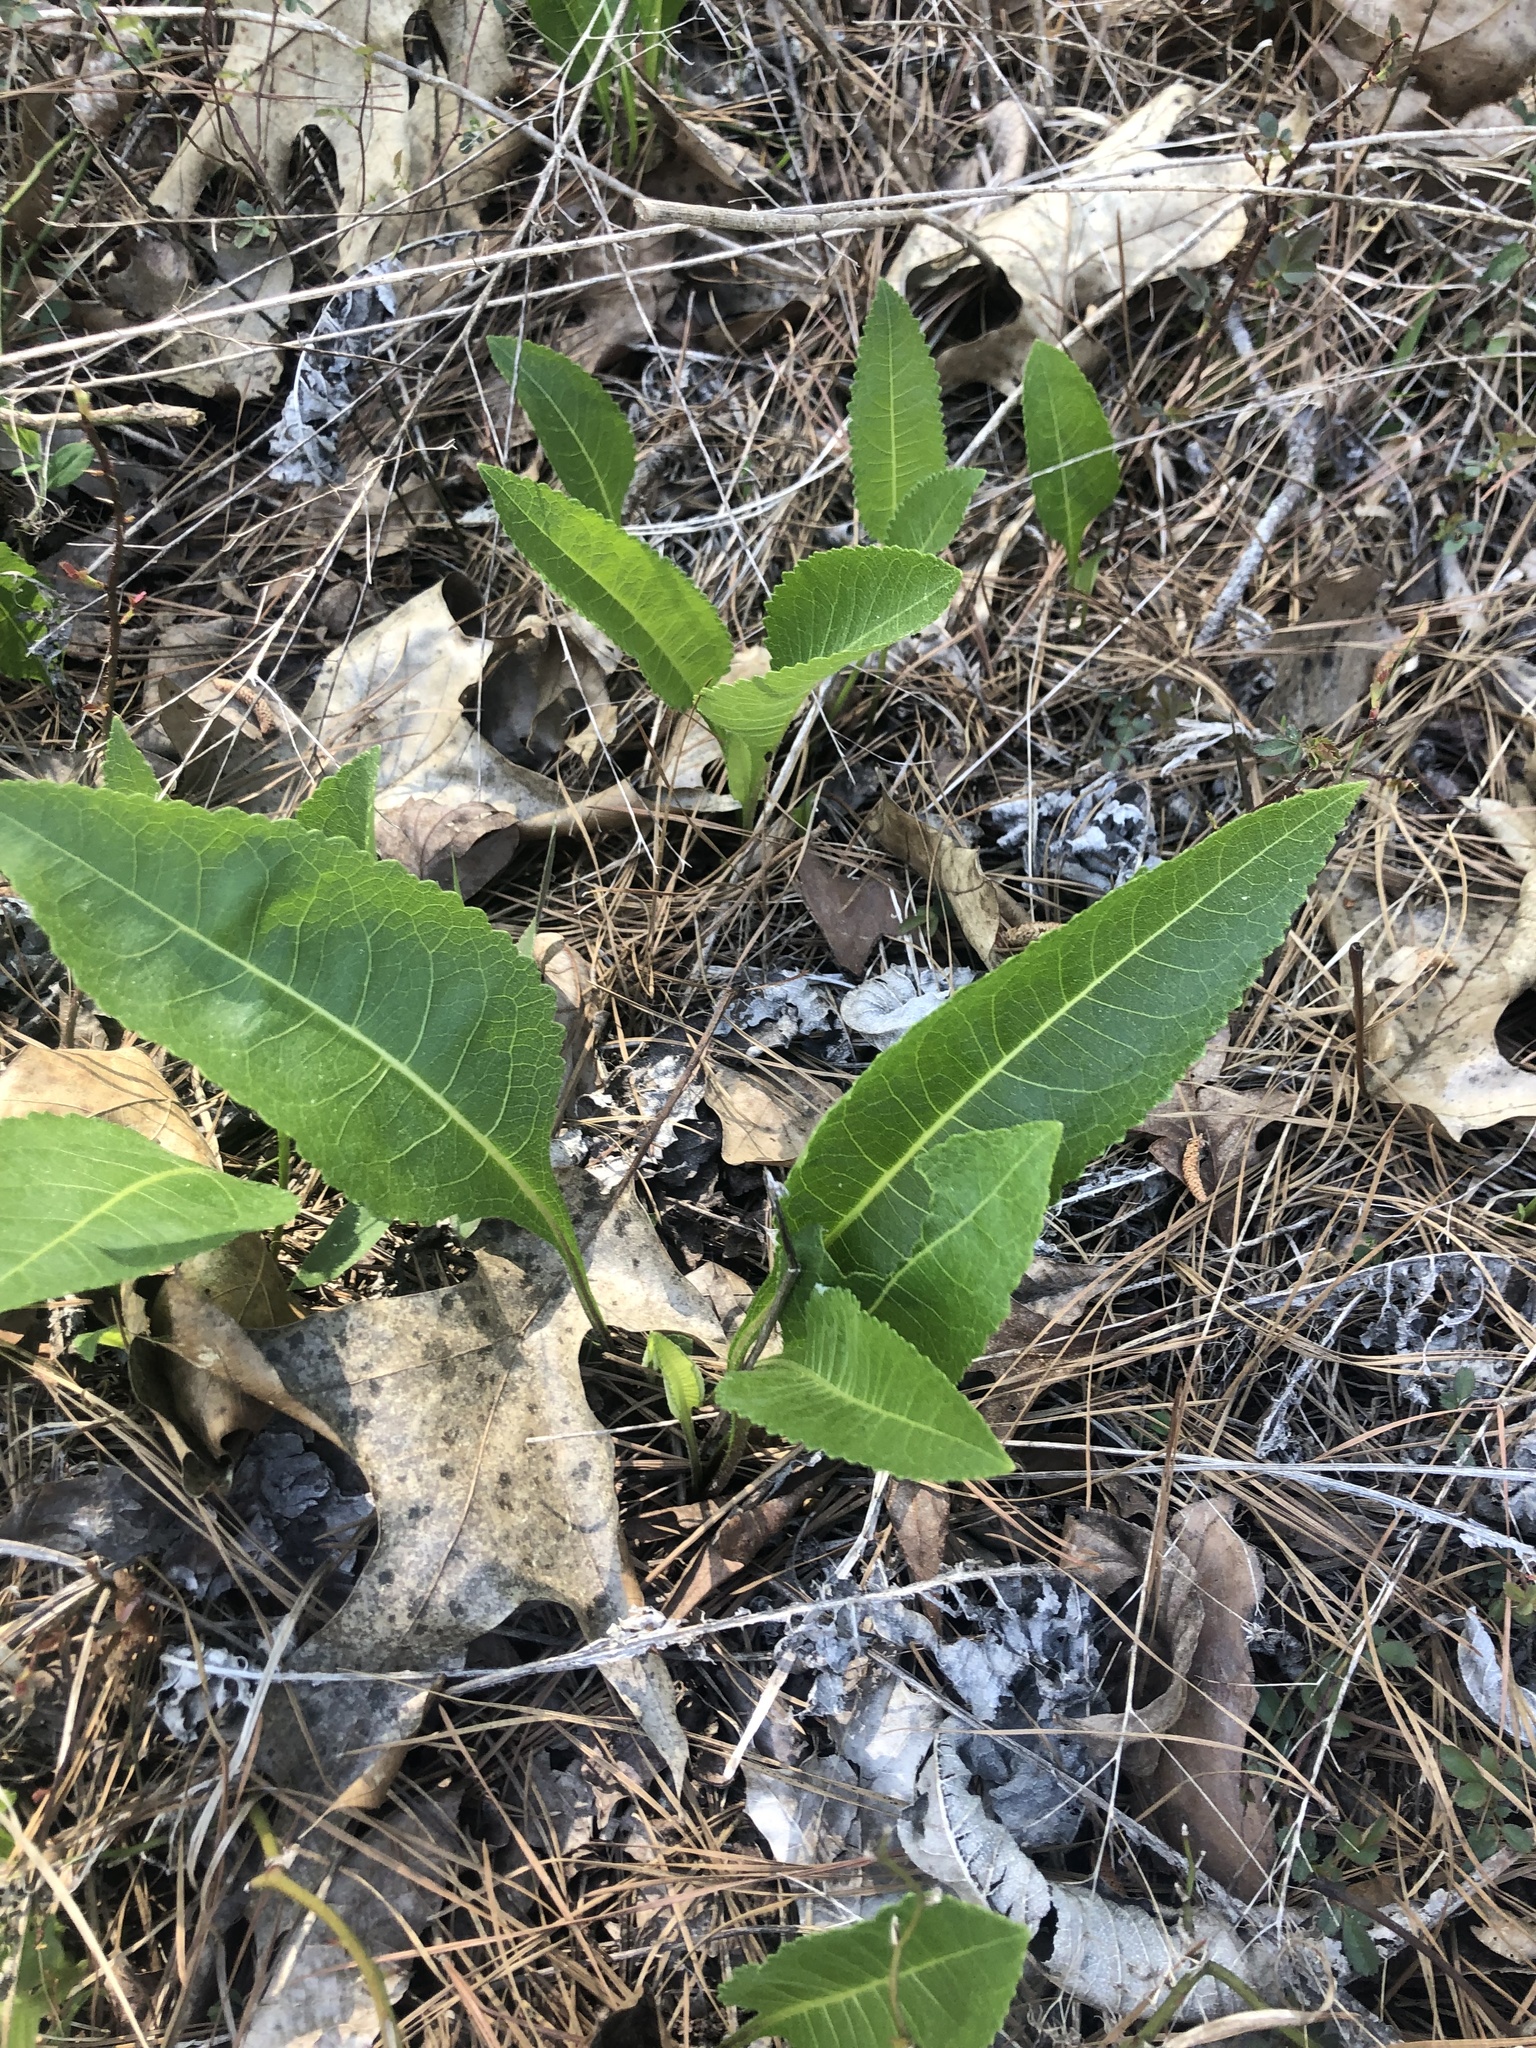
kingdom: Plantae
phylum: Tracheophyta
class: Magnoliopsida
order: Asterales
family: Asteraceae
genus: Parthenium
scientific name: Parthenium integrifolium
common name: American feverfew
